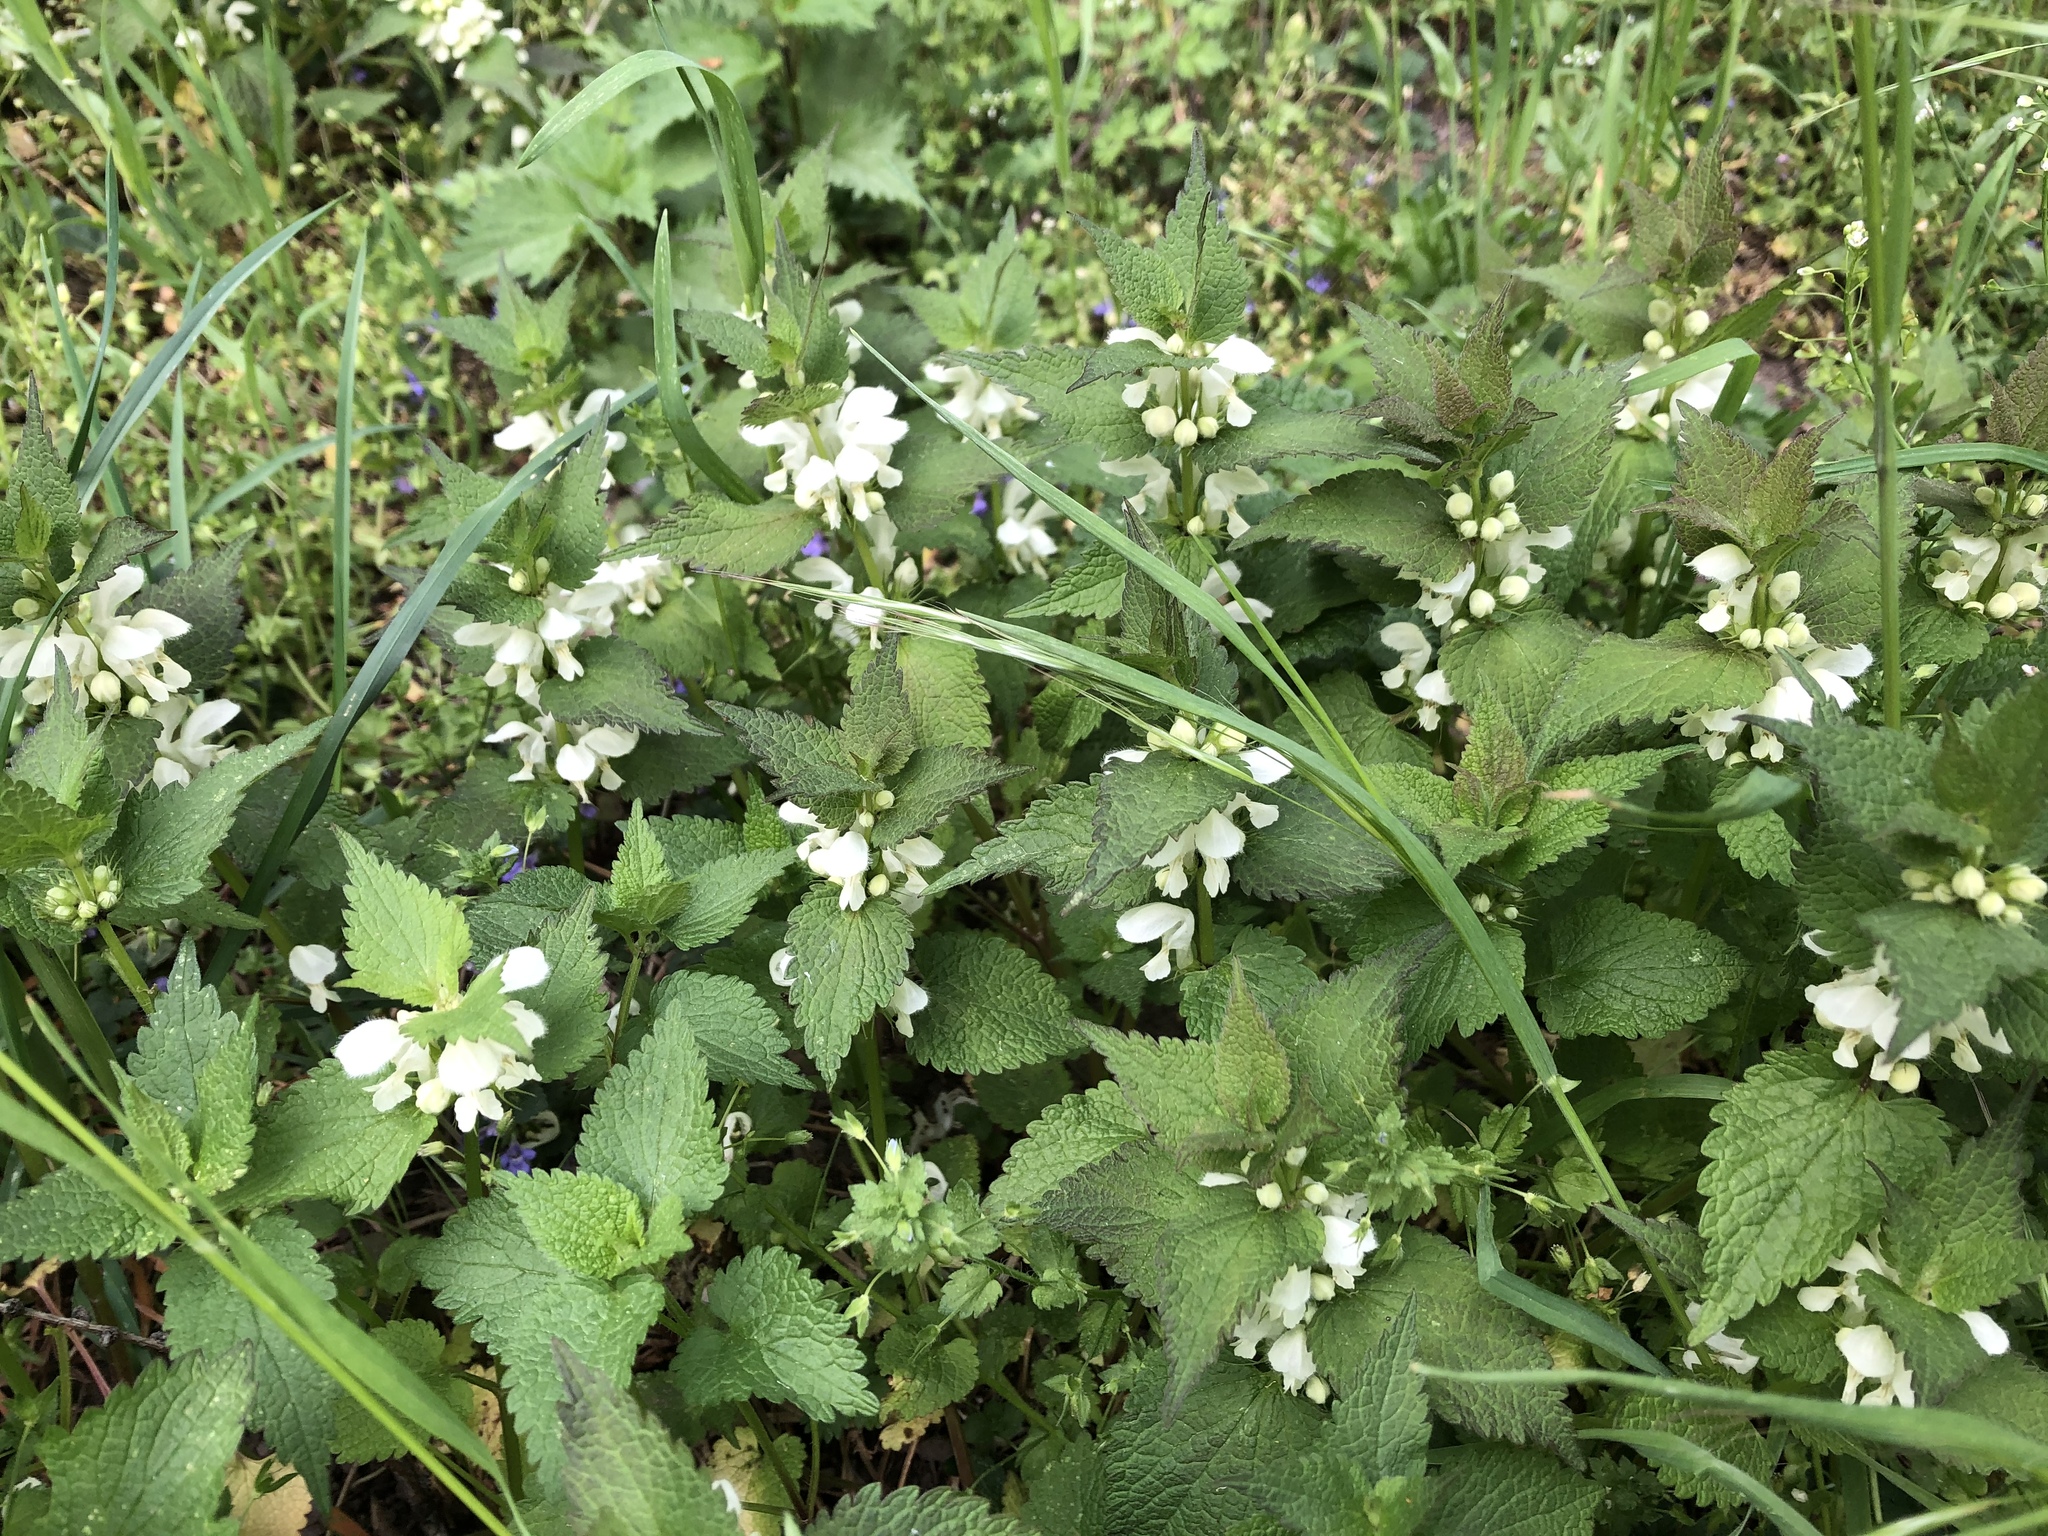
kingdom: Plantae
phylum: Tracheophyta
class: Magnoliopsida
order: Lamiales
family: Lamiaceae
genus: Lamium
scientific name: Lamium album
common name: White dead-nettle
